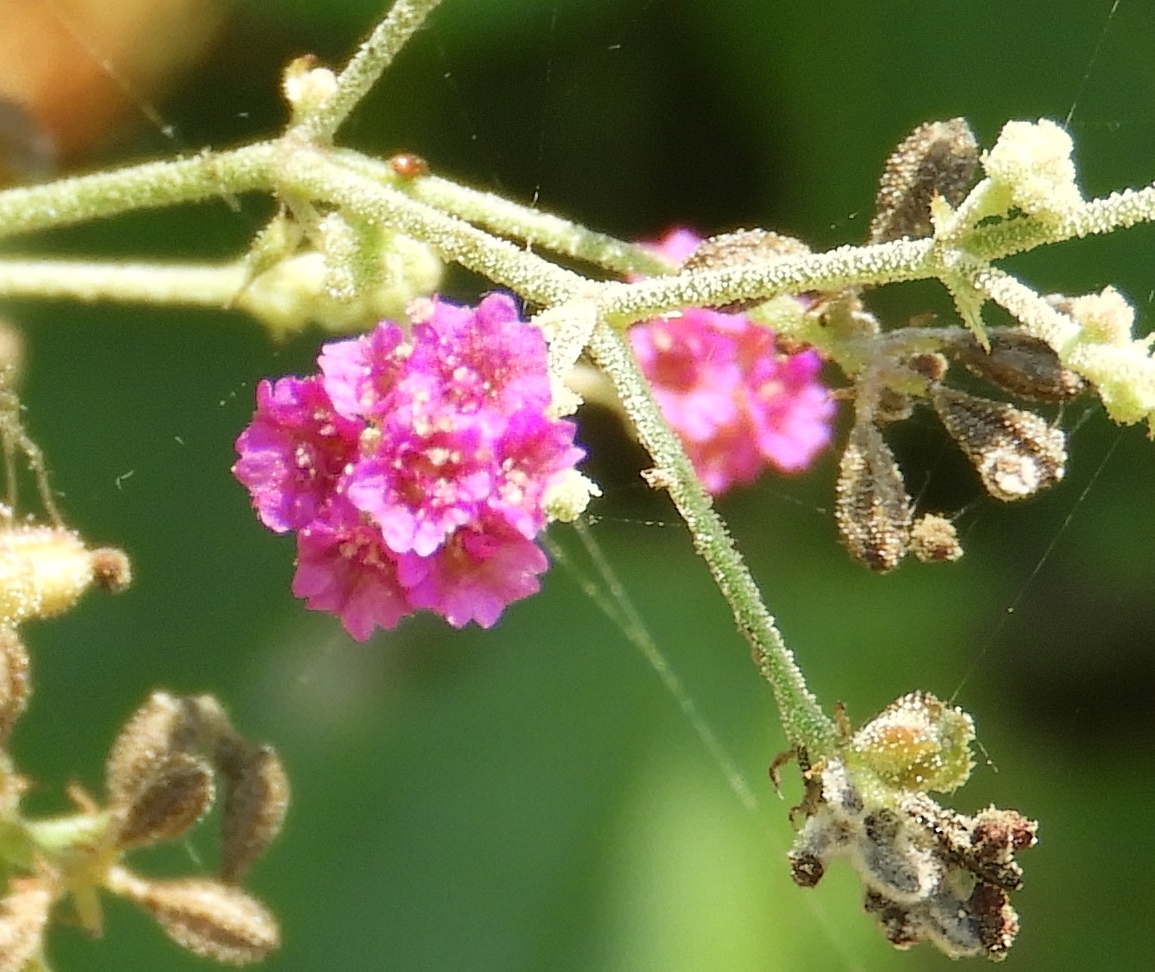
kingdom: Plantae
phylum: Tracheophyta
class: Magnoliopsida
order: Caryophyllales
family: Nyctaginaceae
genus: Boerhavia
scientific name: Boerhavia coccinea
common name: Scarlet spiderling
